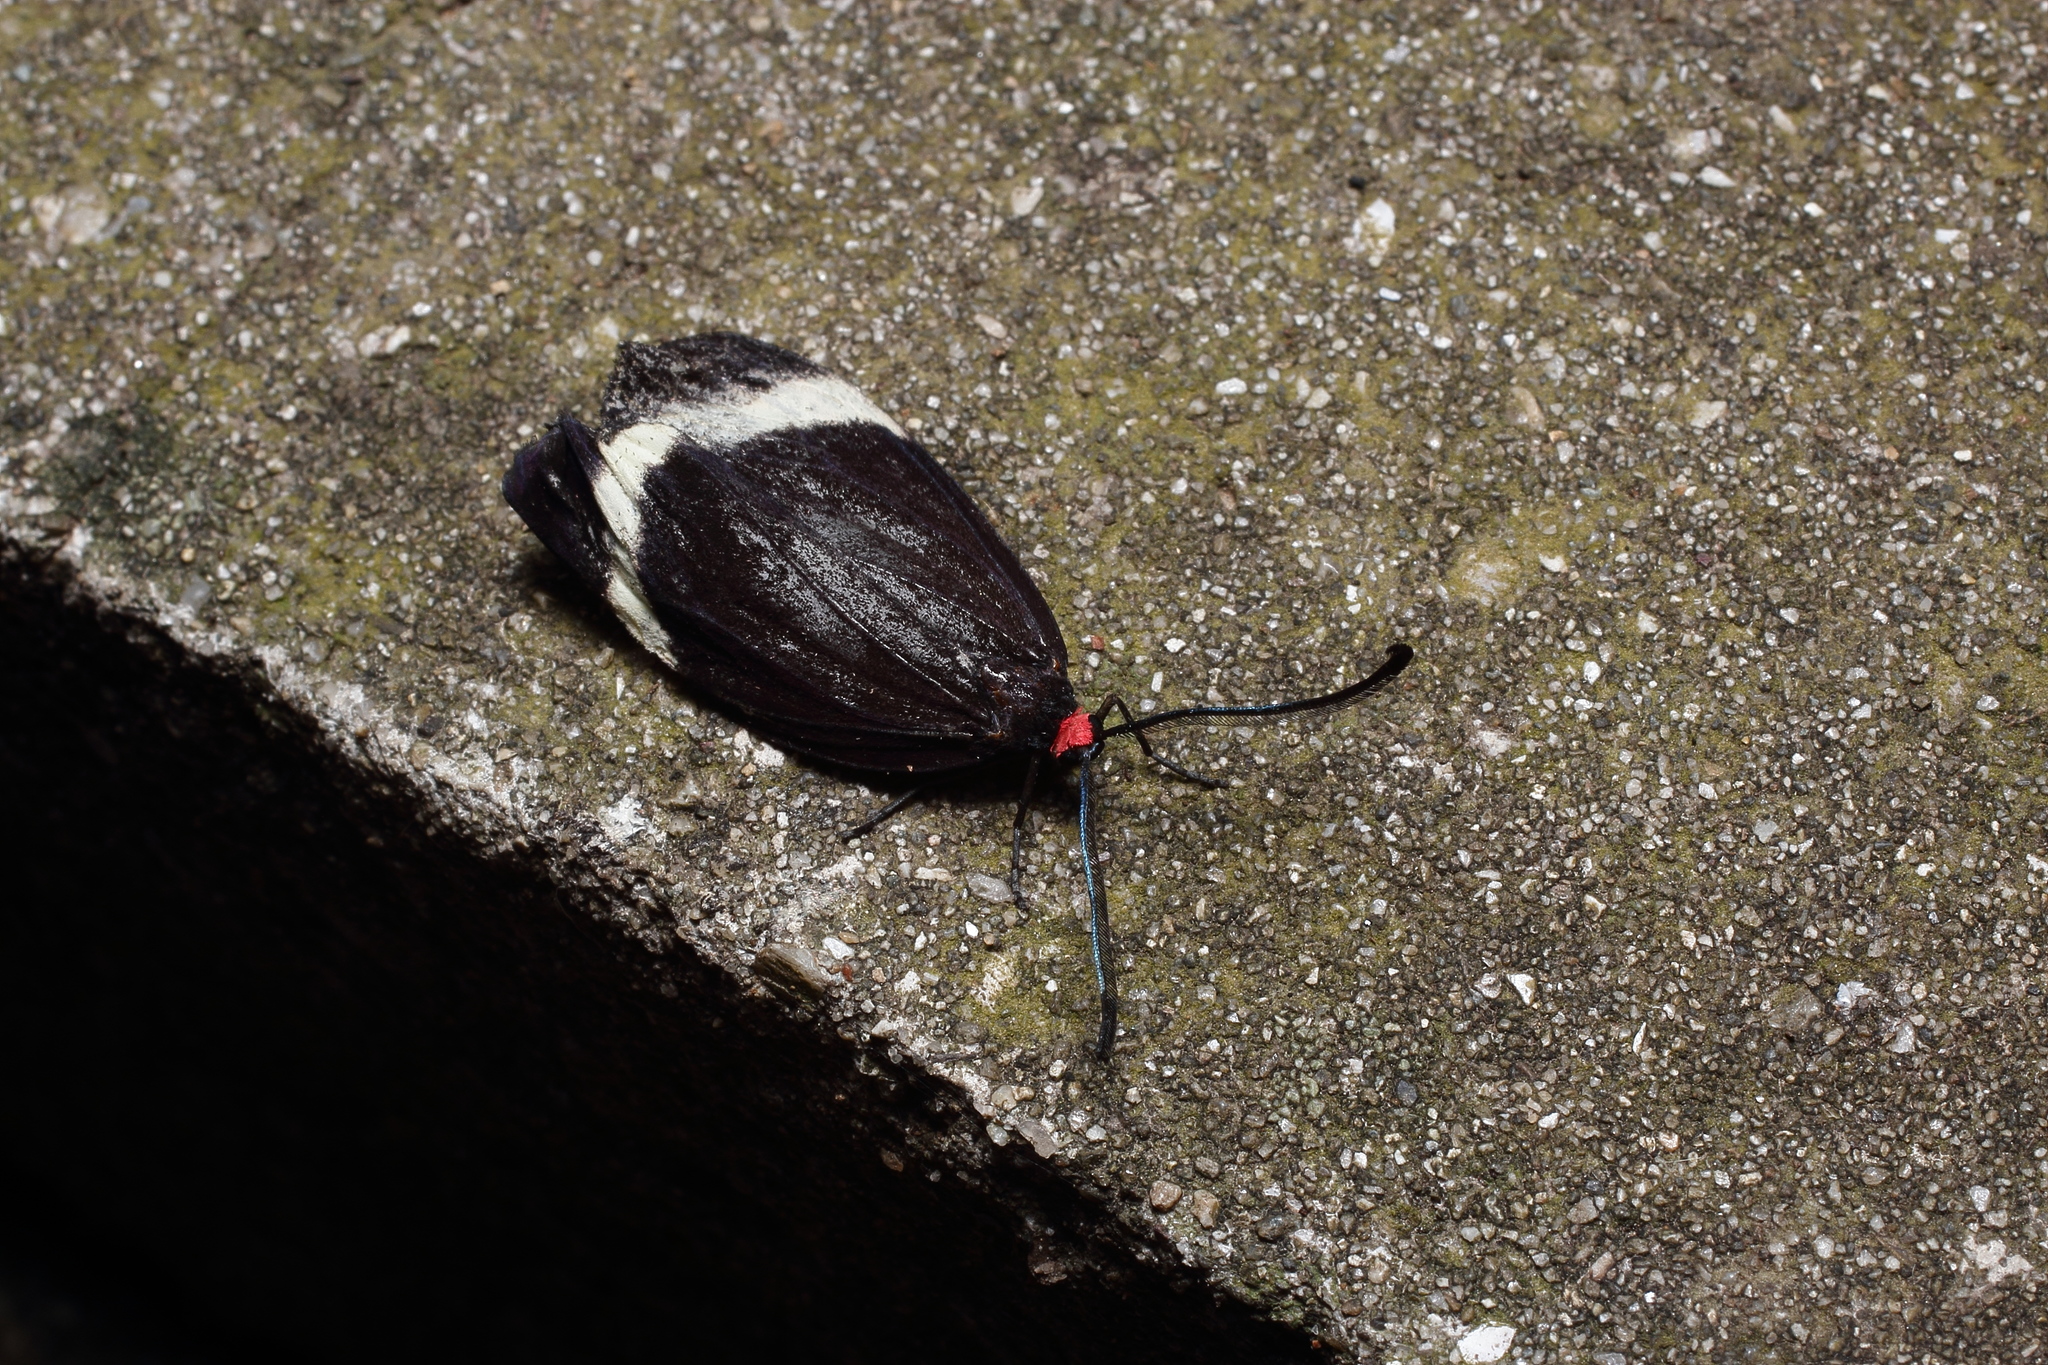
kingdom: Animalia
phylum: Arthropoda
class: Insecta
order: Lepidoptera
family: Zygaenidae
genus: Pidorus
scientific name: Pidorus glaucopis
